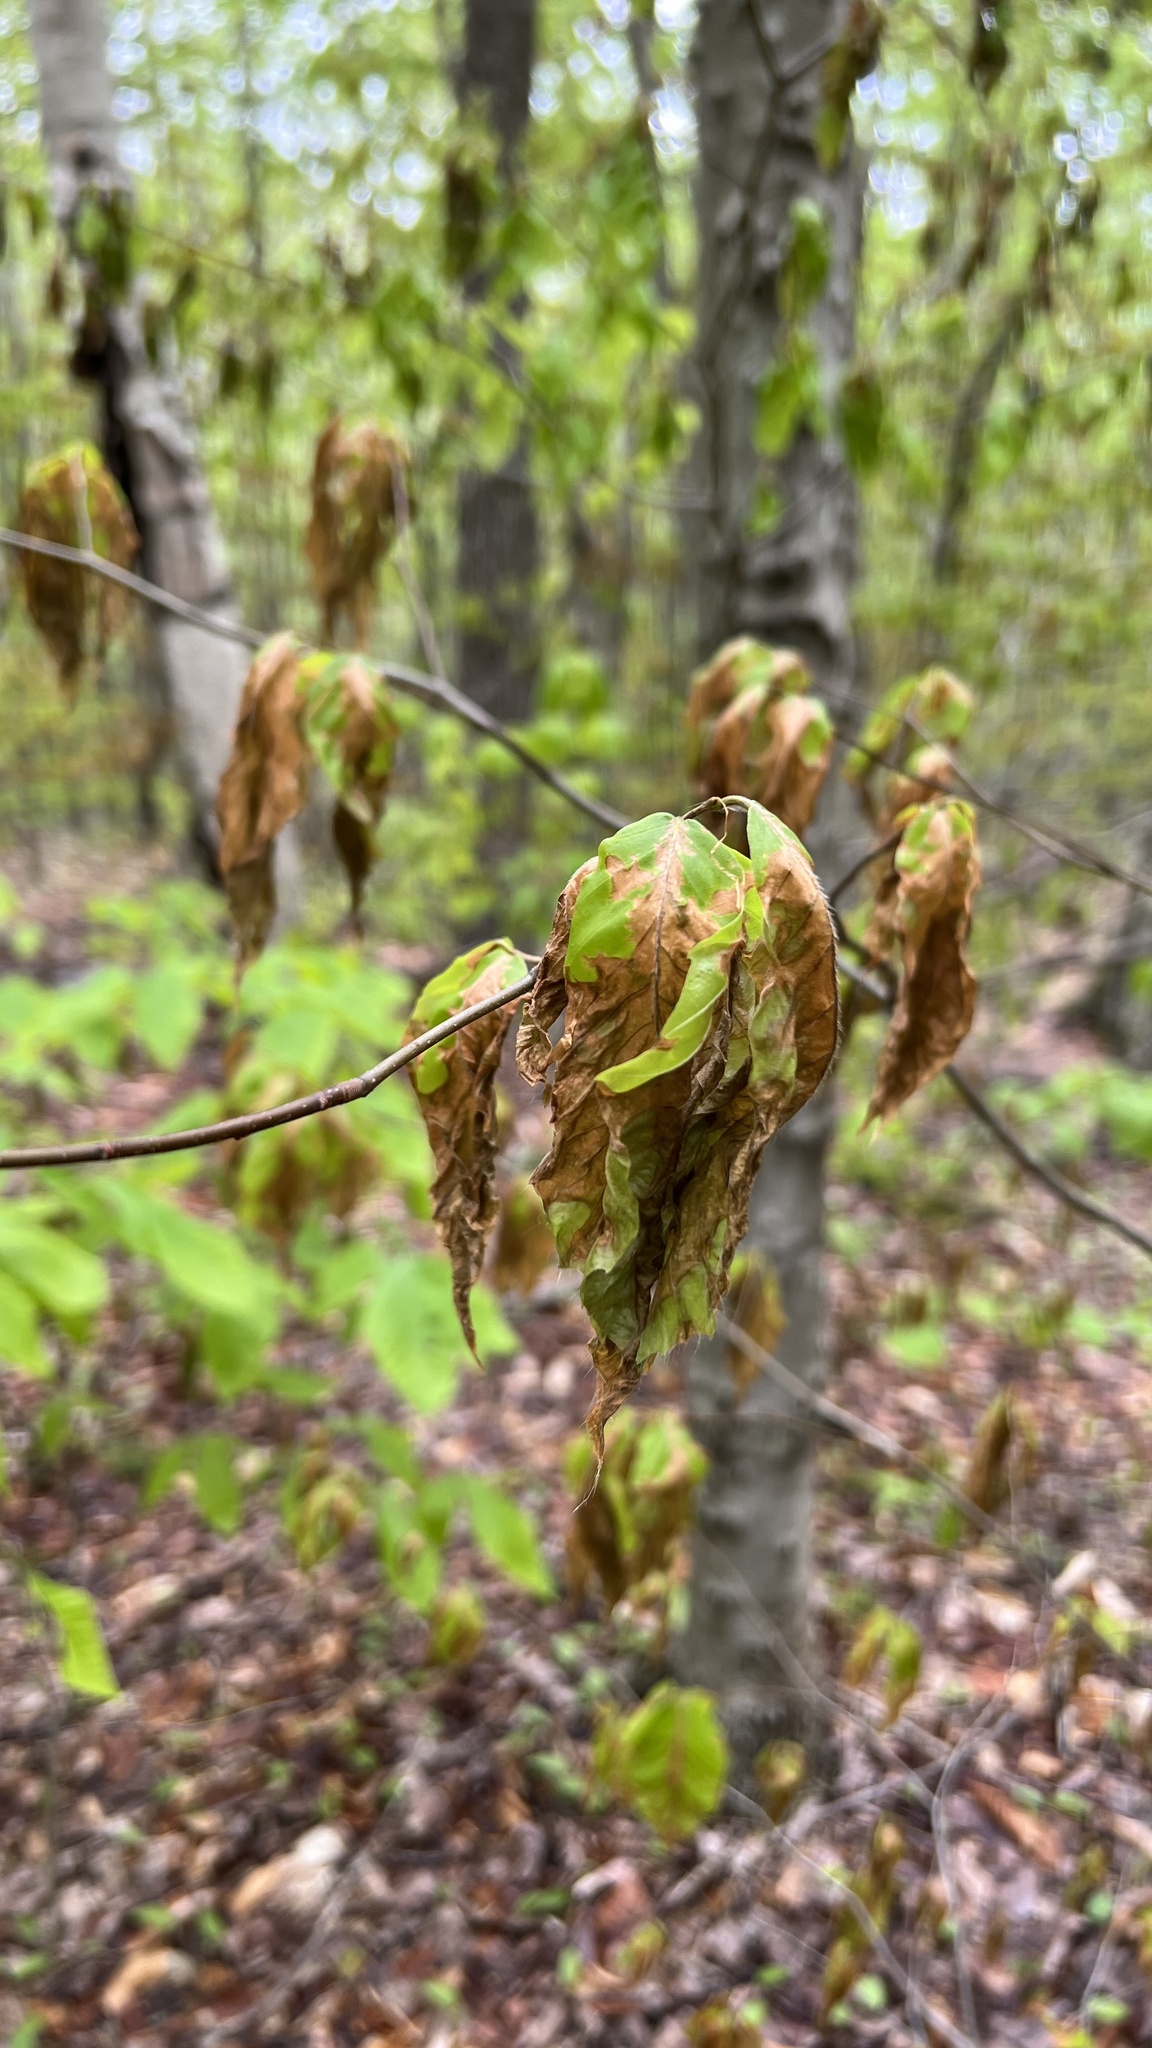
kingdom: Plantae
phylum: Tracheophyta
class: Magnoliopsida
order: Fagales
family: Fagaceae
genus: Fagus
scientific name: Fagus grandifolia
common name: American beech
